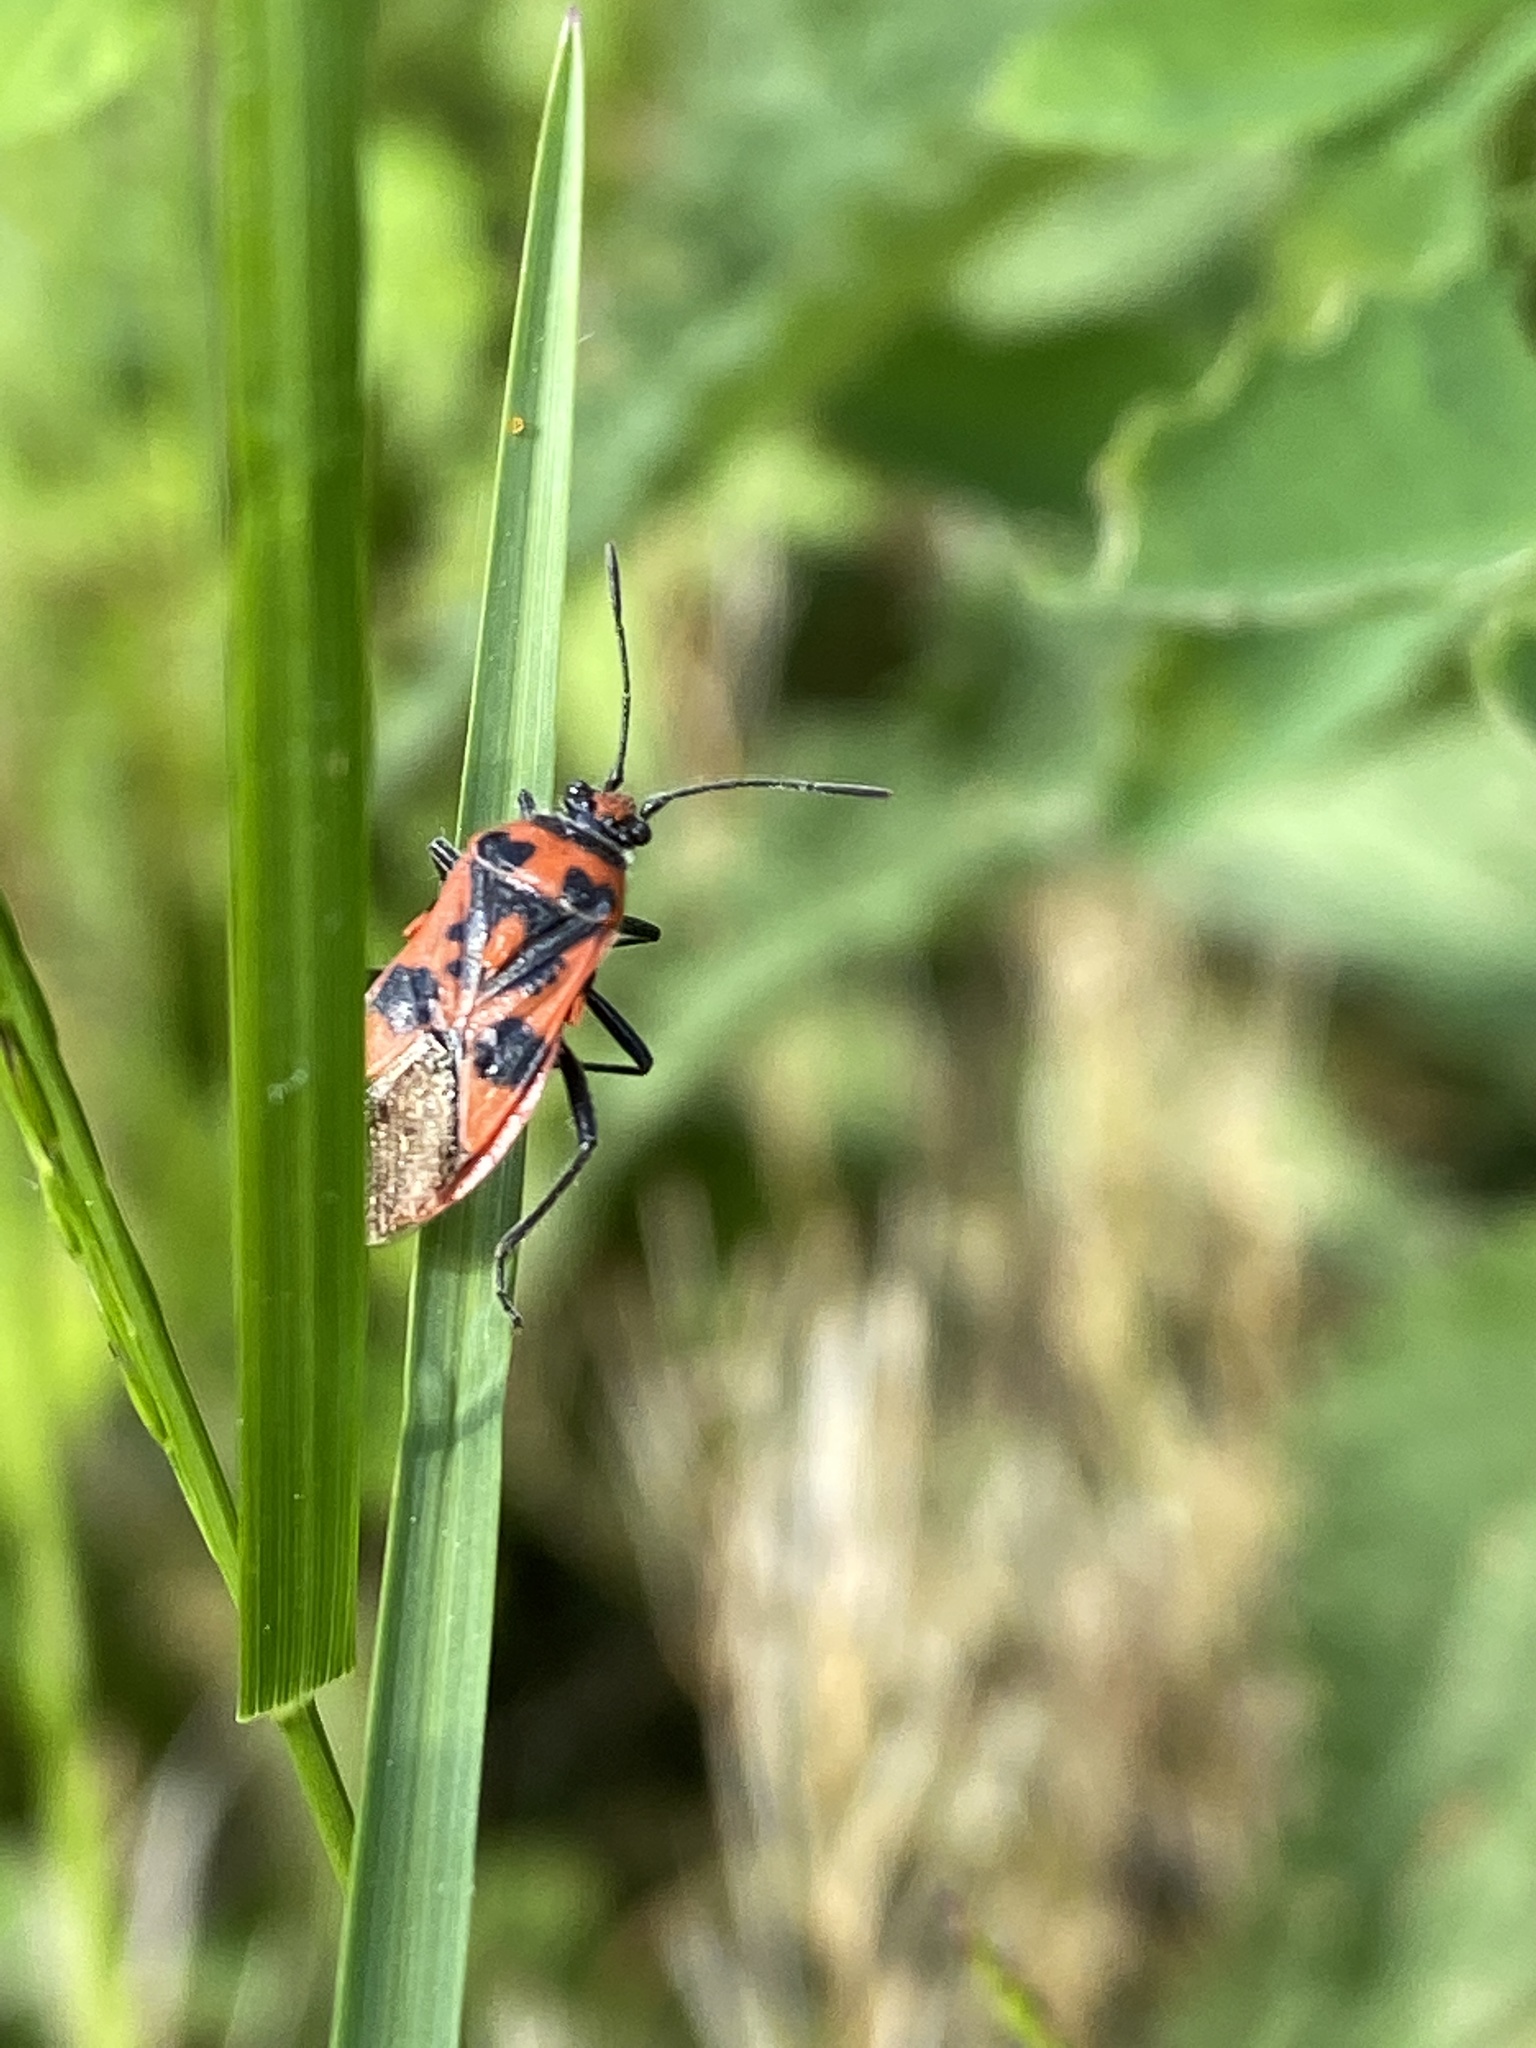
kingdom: Animalia
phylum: Arthropoda
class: Insecta
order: Hemiptera
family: Rhopalidae
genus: Corizus
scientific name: Corizus hyoscyami
